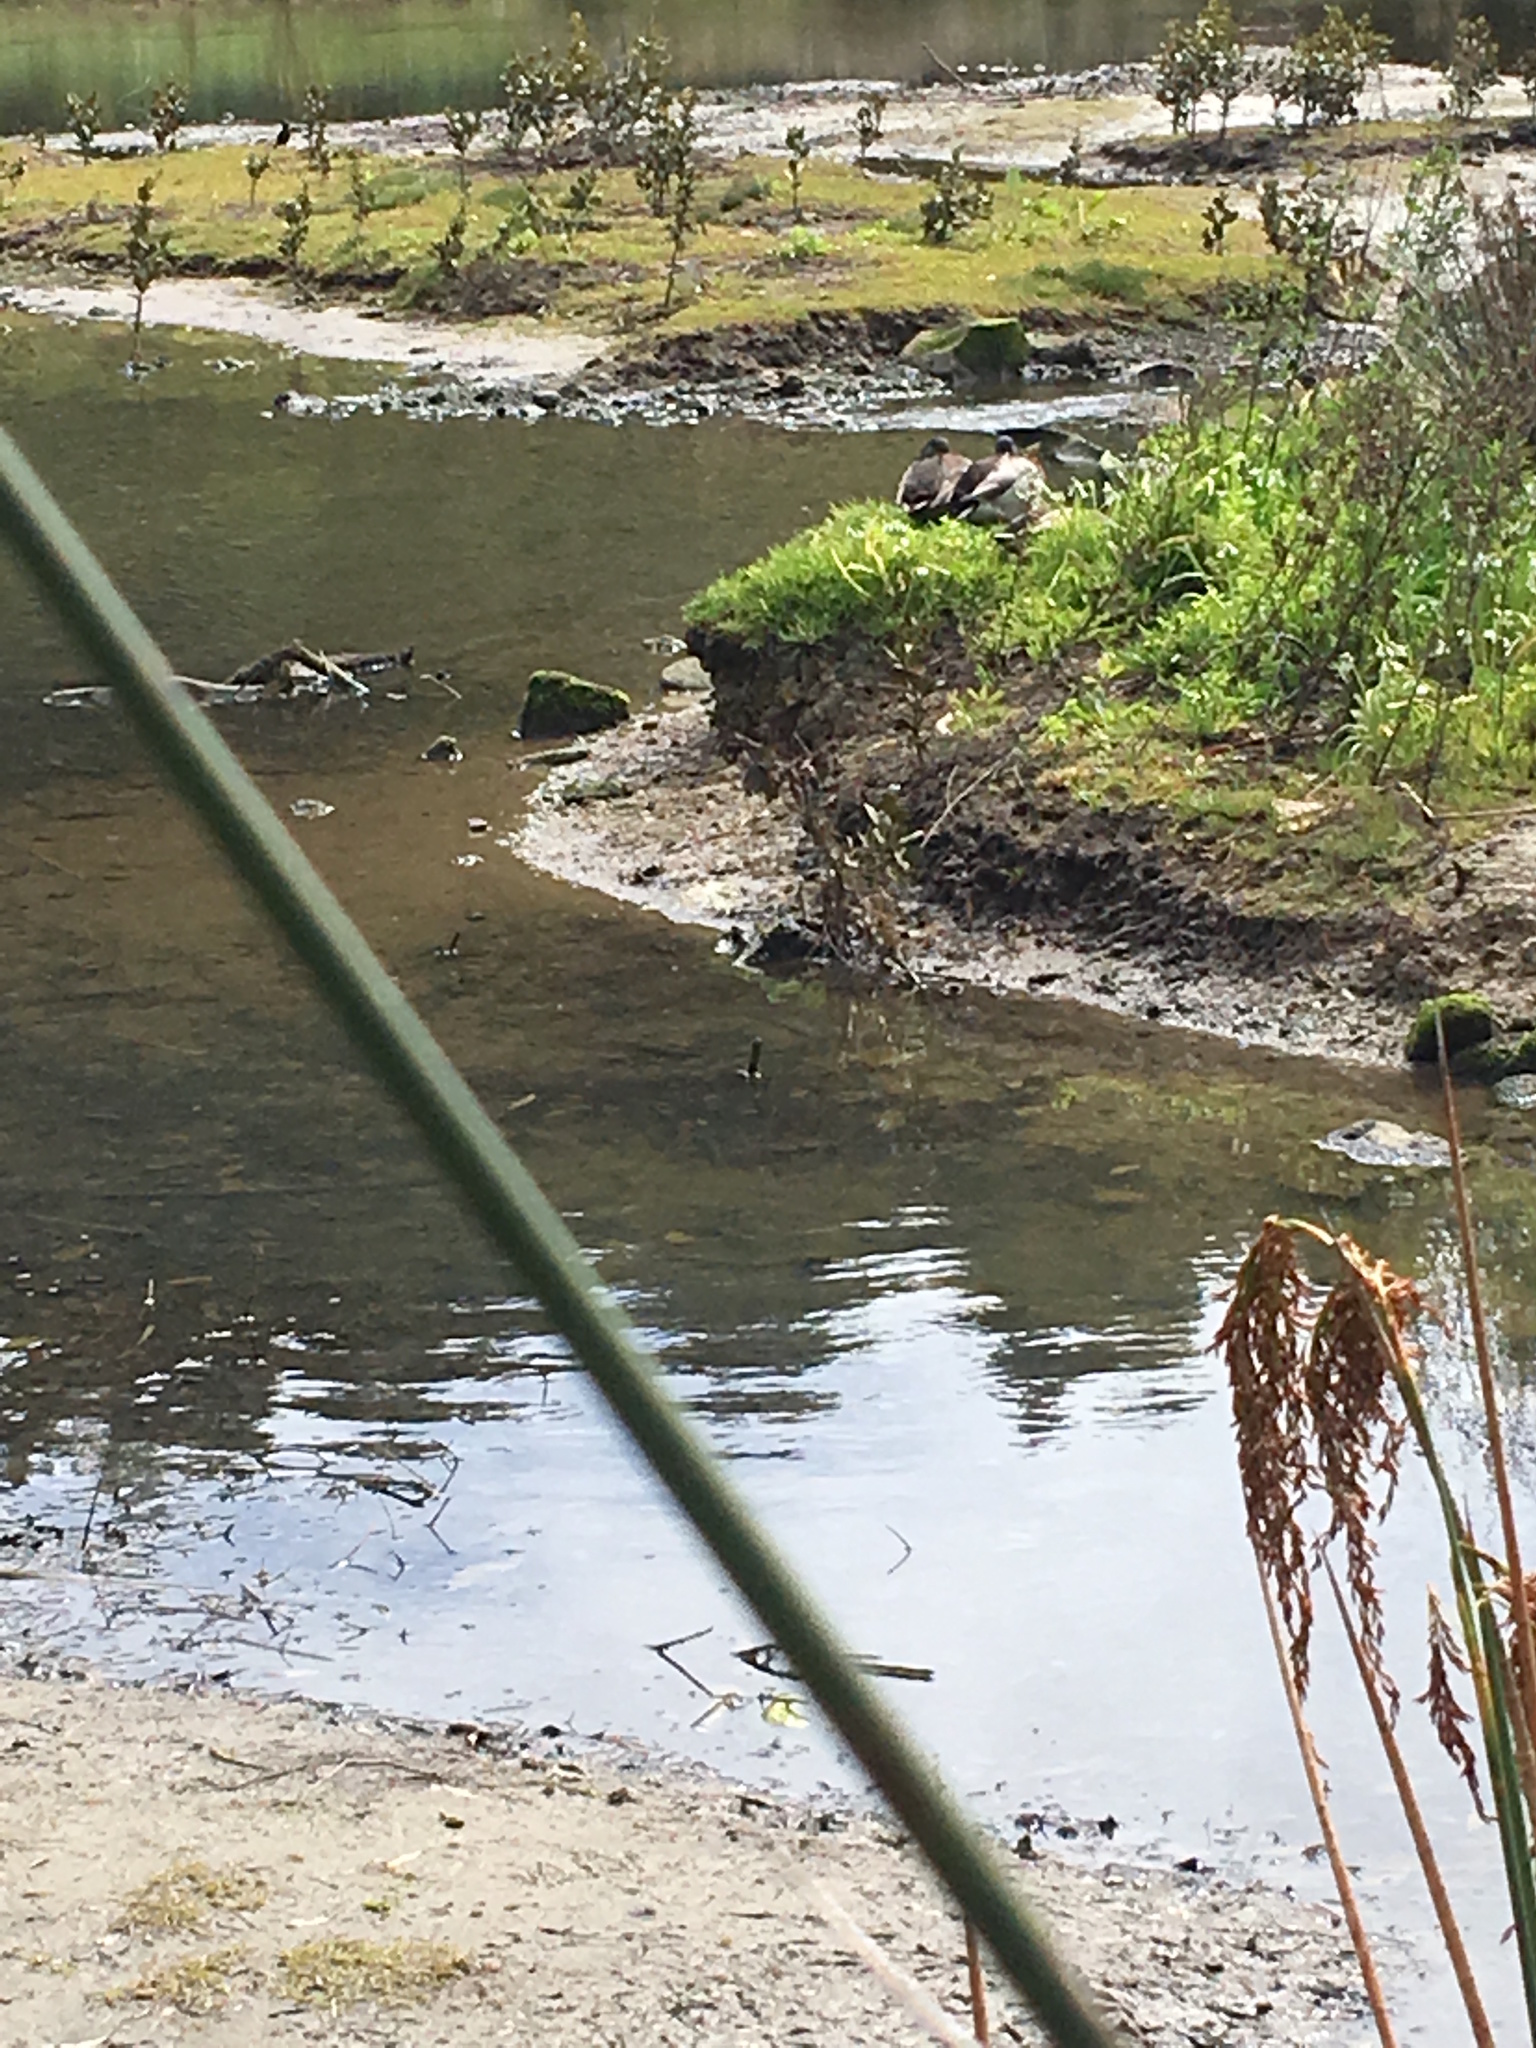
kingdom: Animalia
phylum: Chordata
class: Aves
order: Anseriformes
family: Anatidae
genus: Anas
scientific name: Anas platyrhynchos
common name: Mallard
